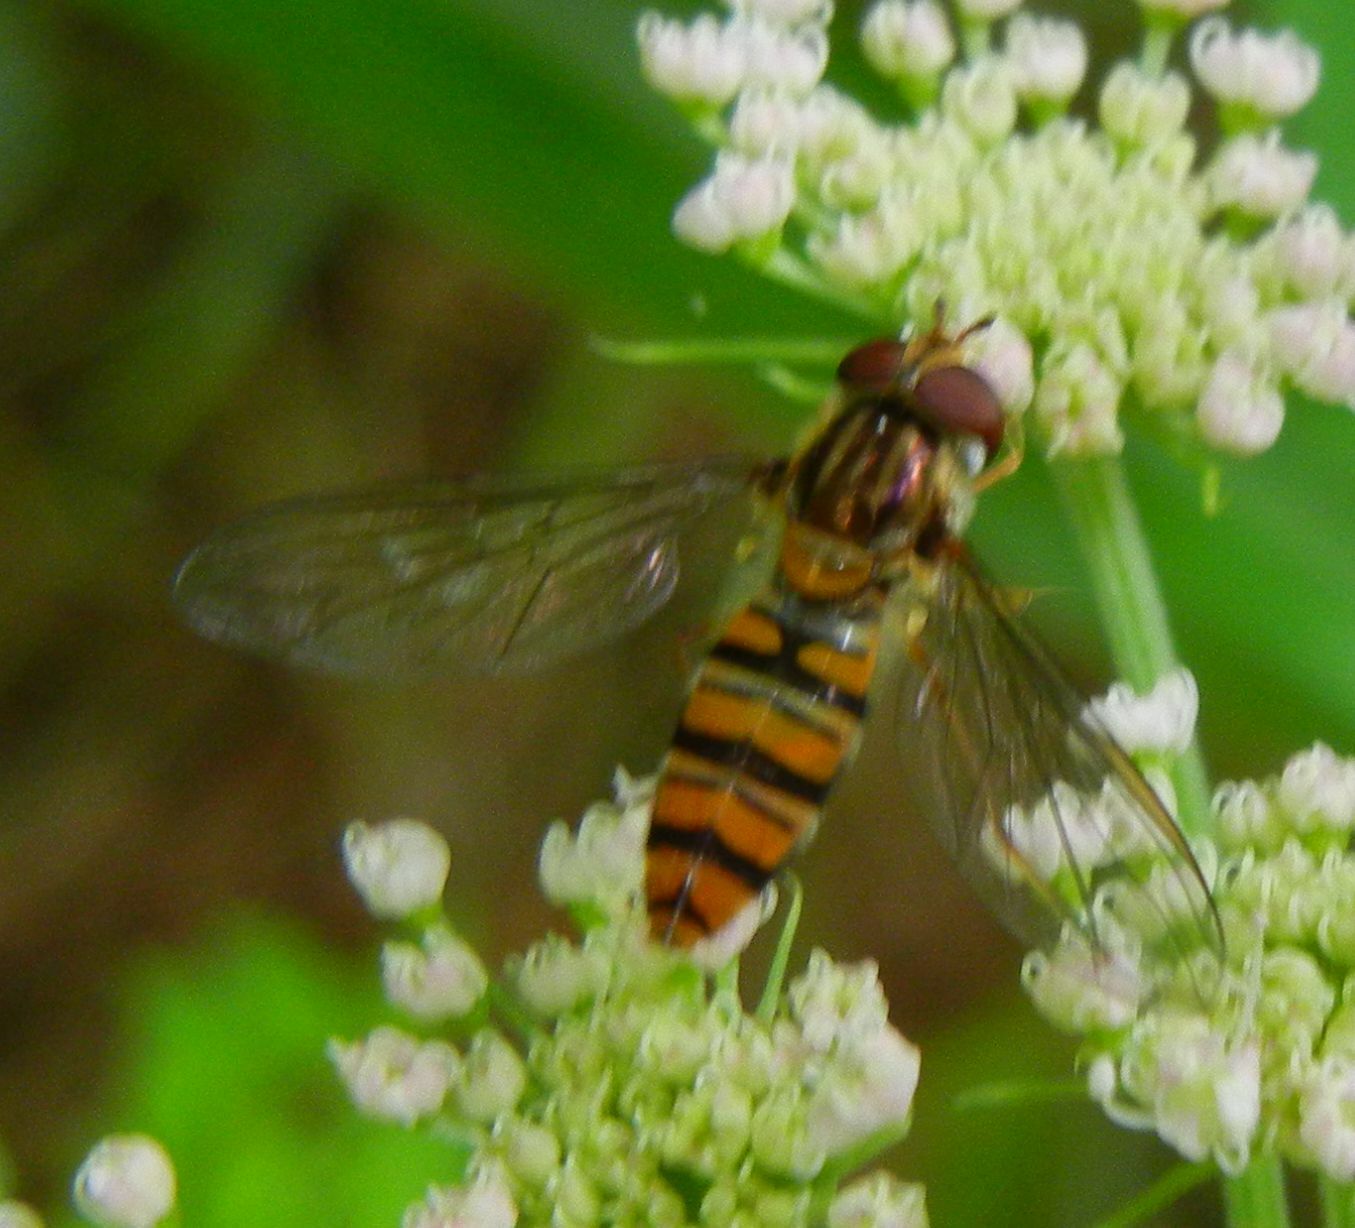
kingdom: Animalia
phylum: Arthropoda
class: Insecta
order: Diptera
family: Syrphidae
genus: Episyrphus
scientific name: Episyrphus balteatus
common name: Marmalade hoverfly
